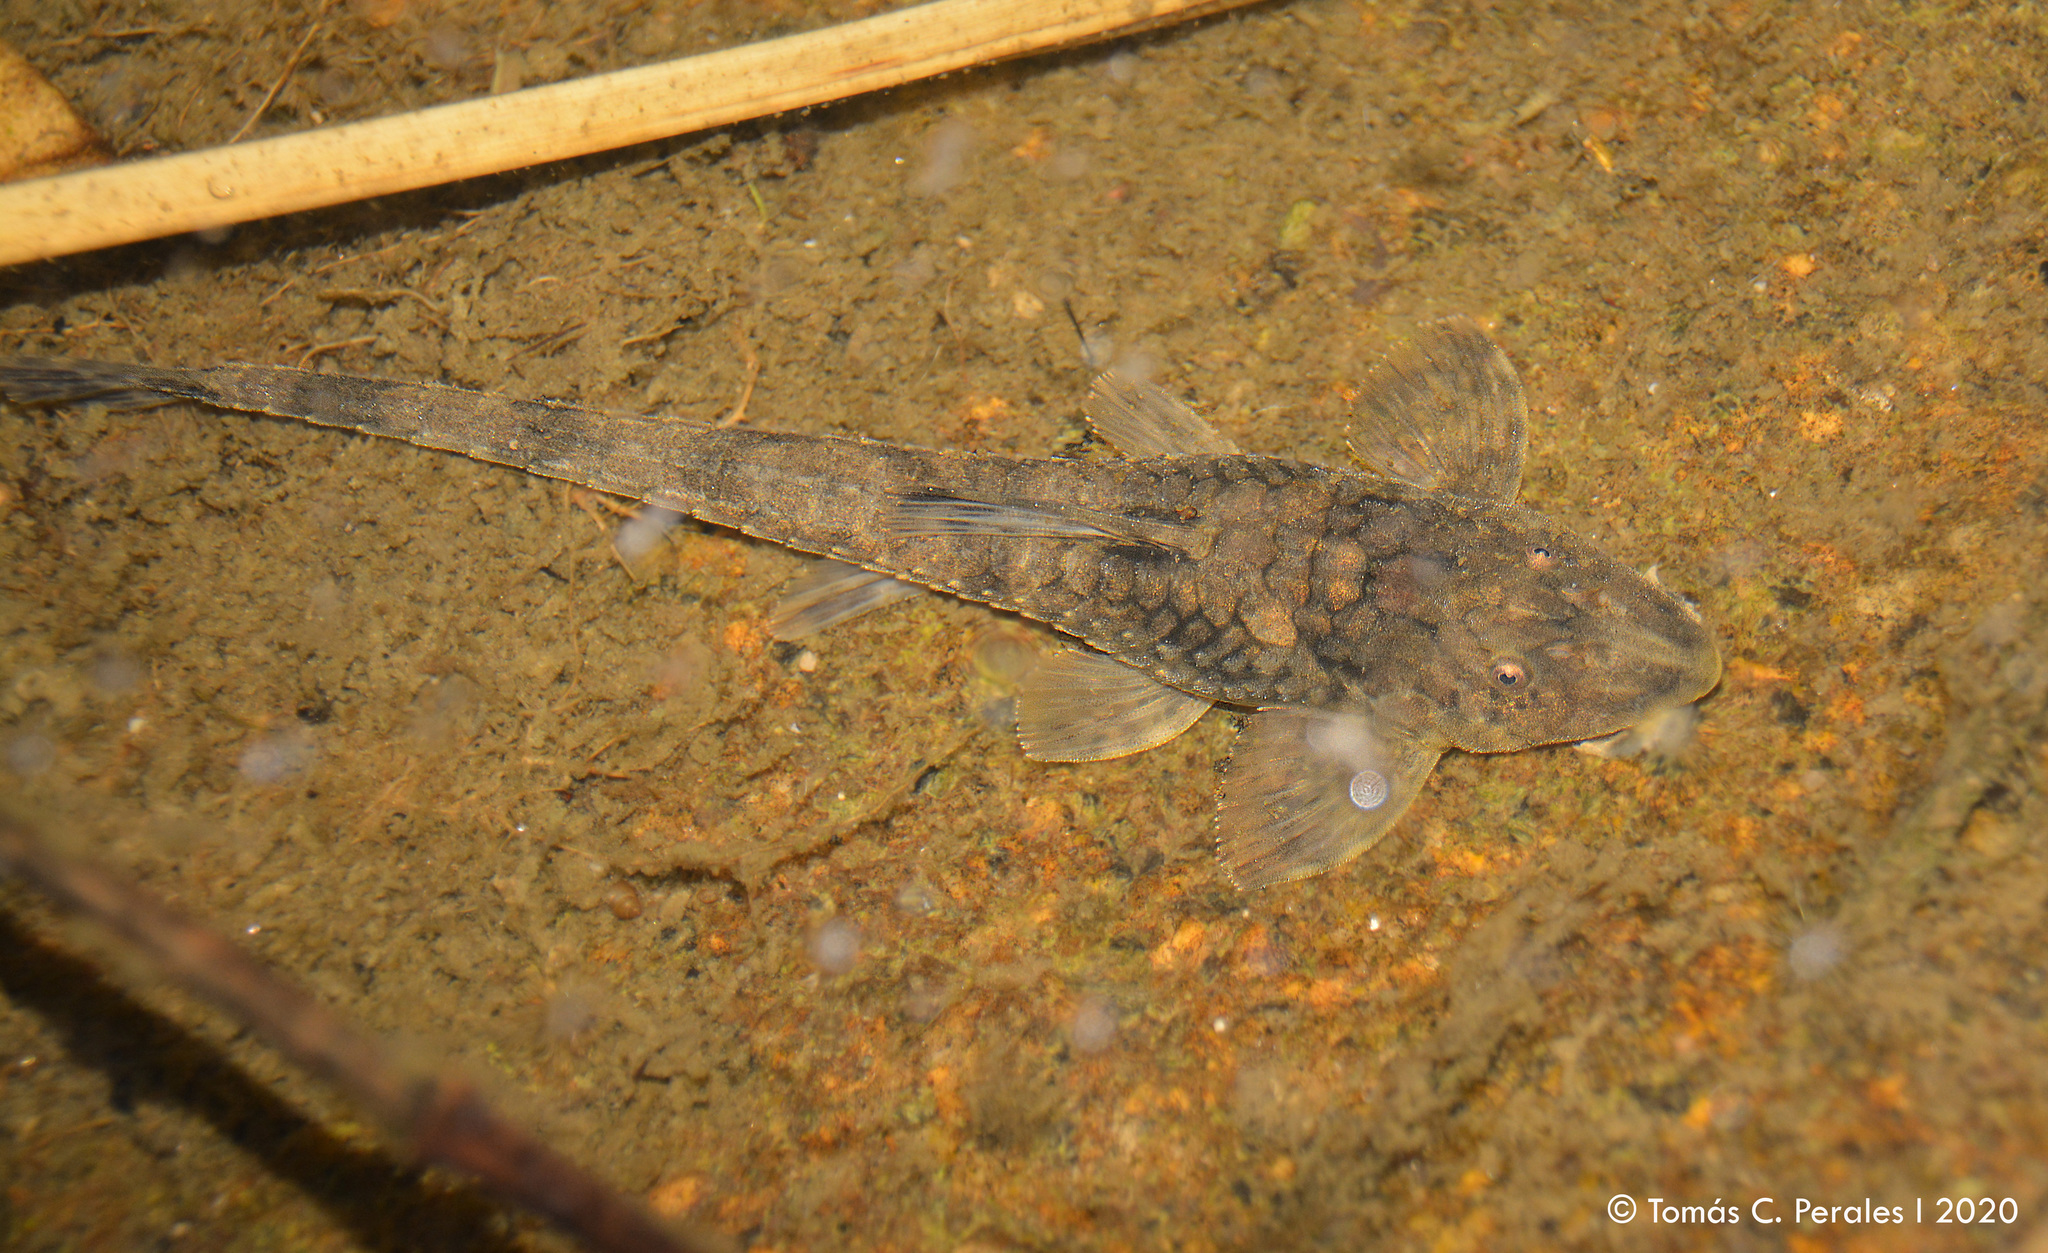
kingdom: Animalia
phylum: Chordata
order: Siluriformes
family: Loricariidae
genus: Rineloricaria
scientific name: Rineloricaria catamarcensis
